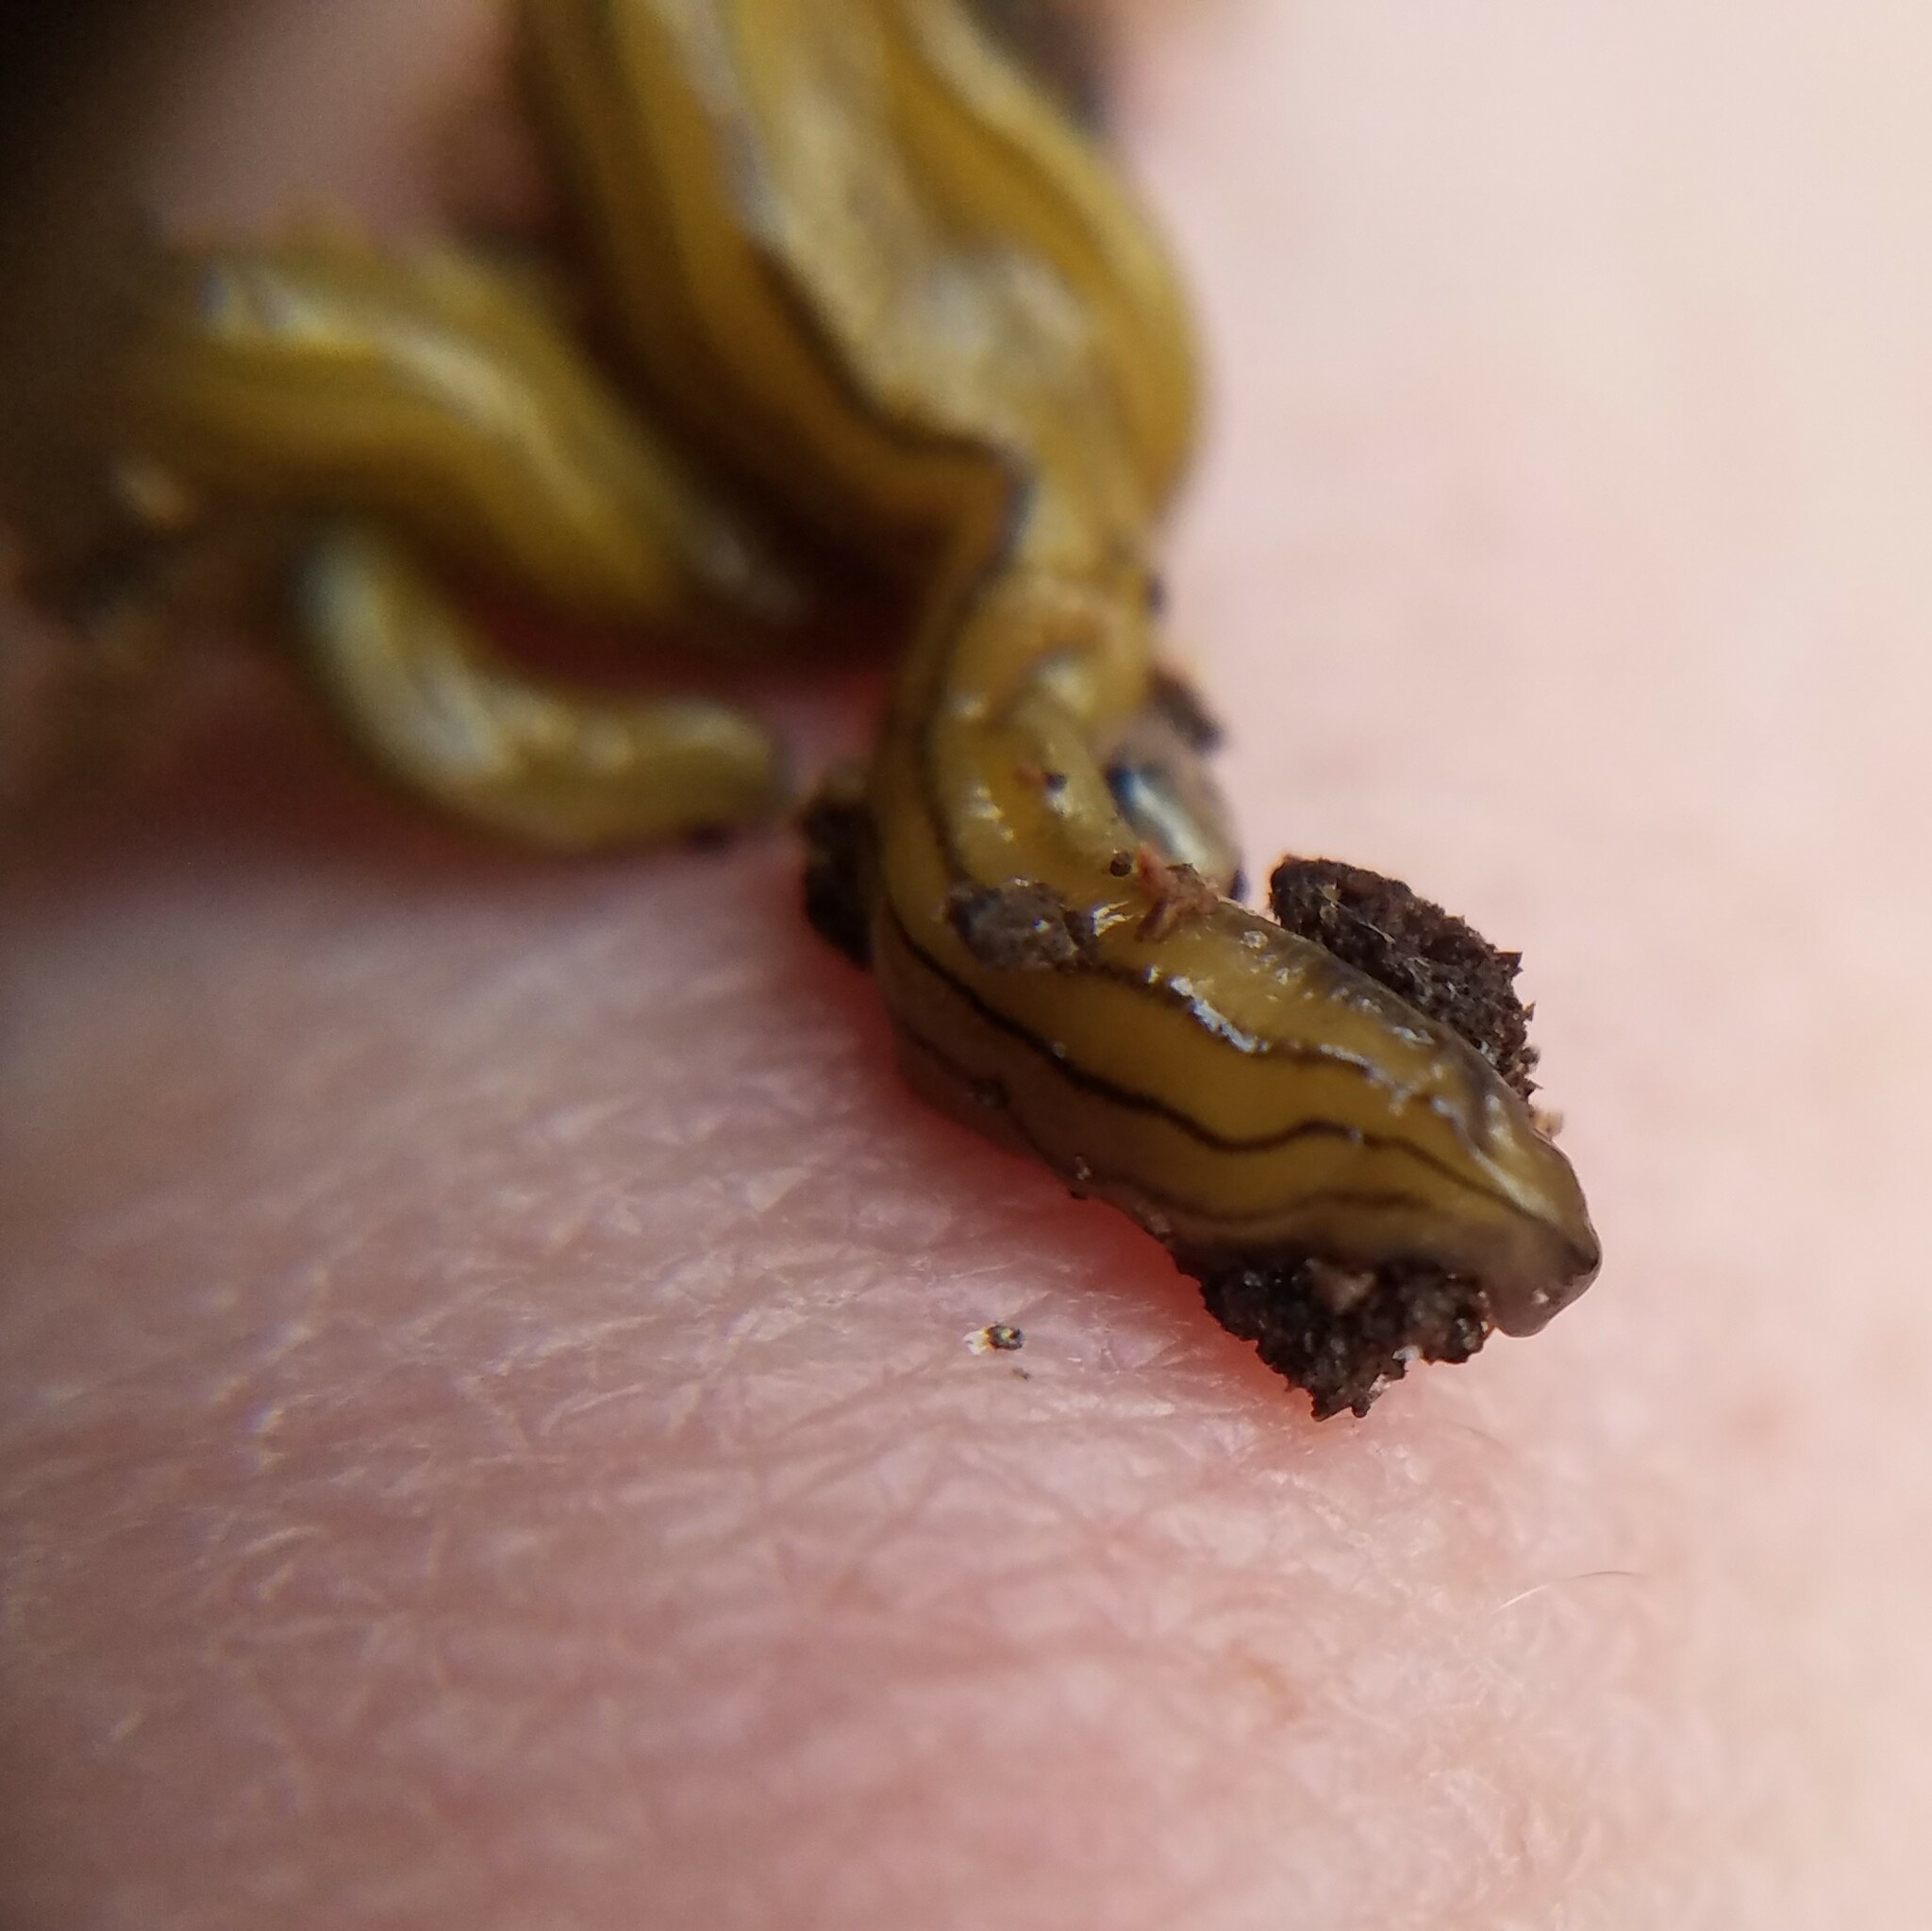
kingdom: Animalia
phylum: Platyhelminthes
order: Tricladida
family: Geoplanidae
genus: Diversibipalium
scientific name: Diversibipalium multilineatum
